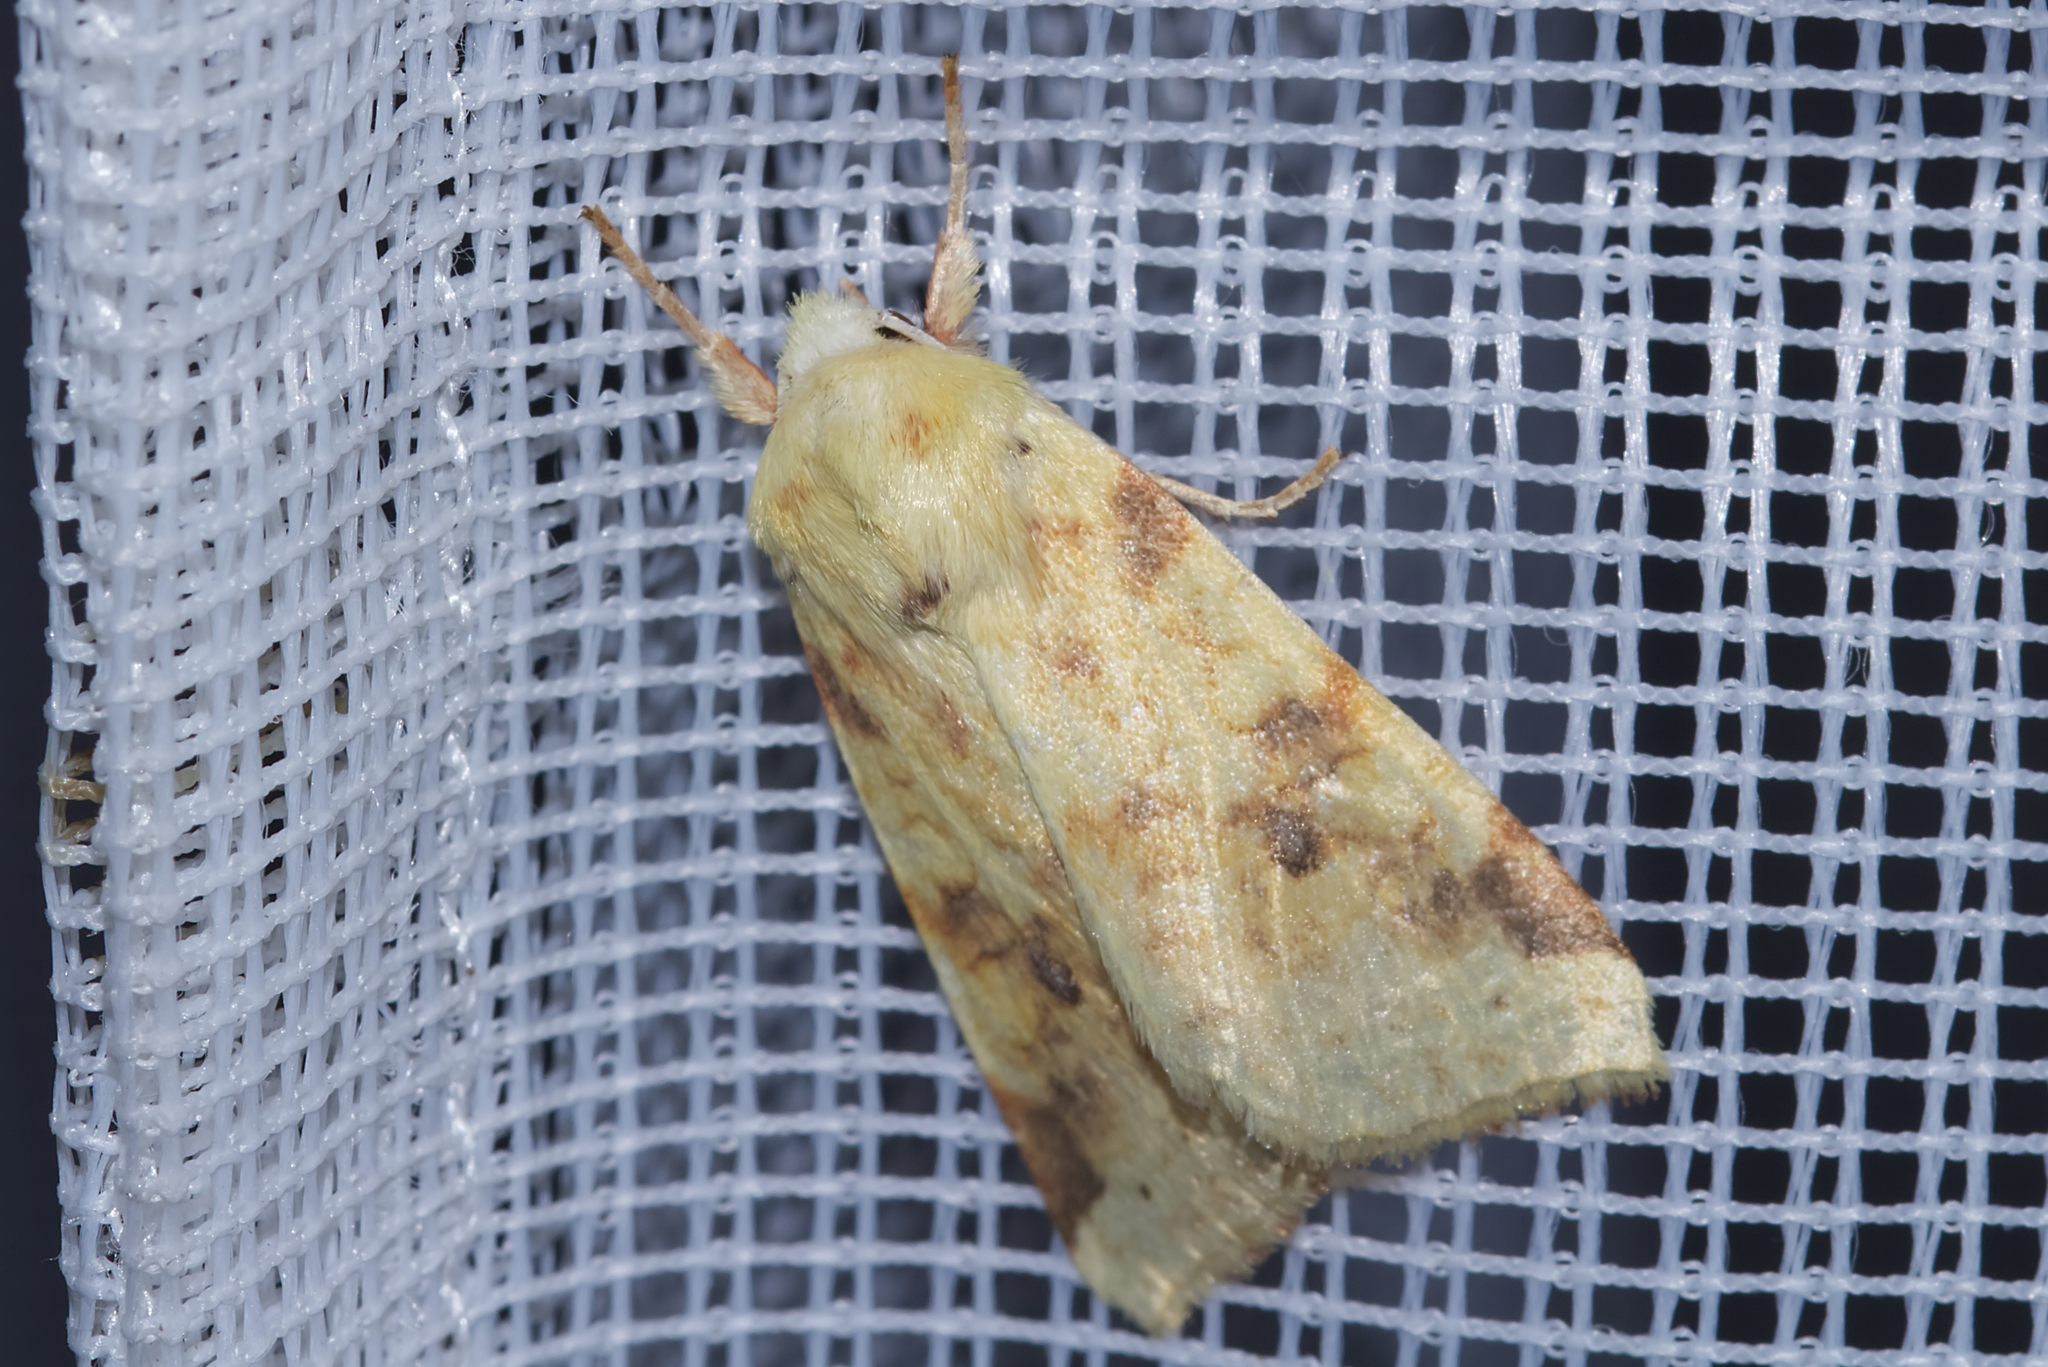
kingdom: Animalia
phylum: Arthropoda
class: Insecta
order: Lepidoptera
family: Noctuidae
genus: Xanthia
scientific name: Xanthia icteritia
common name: The sallow
